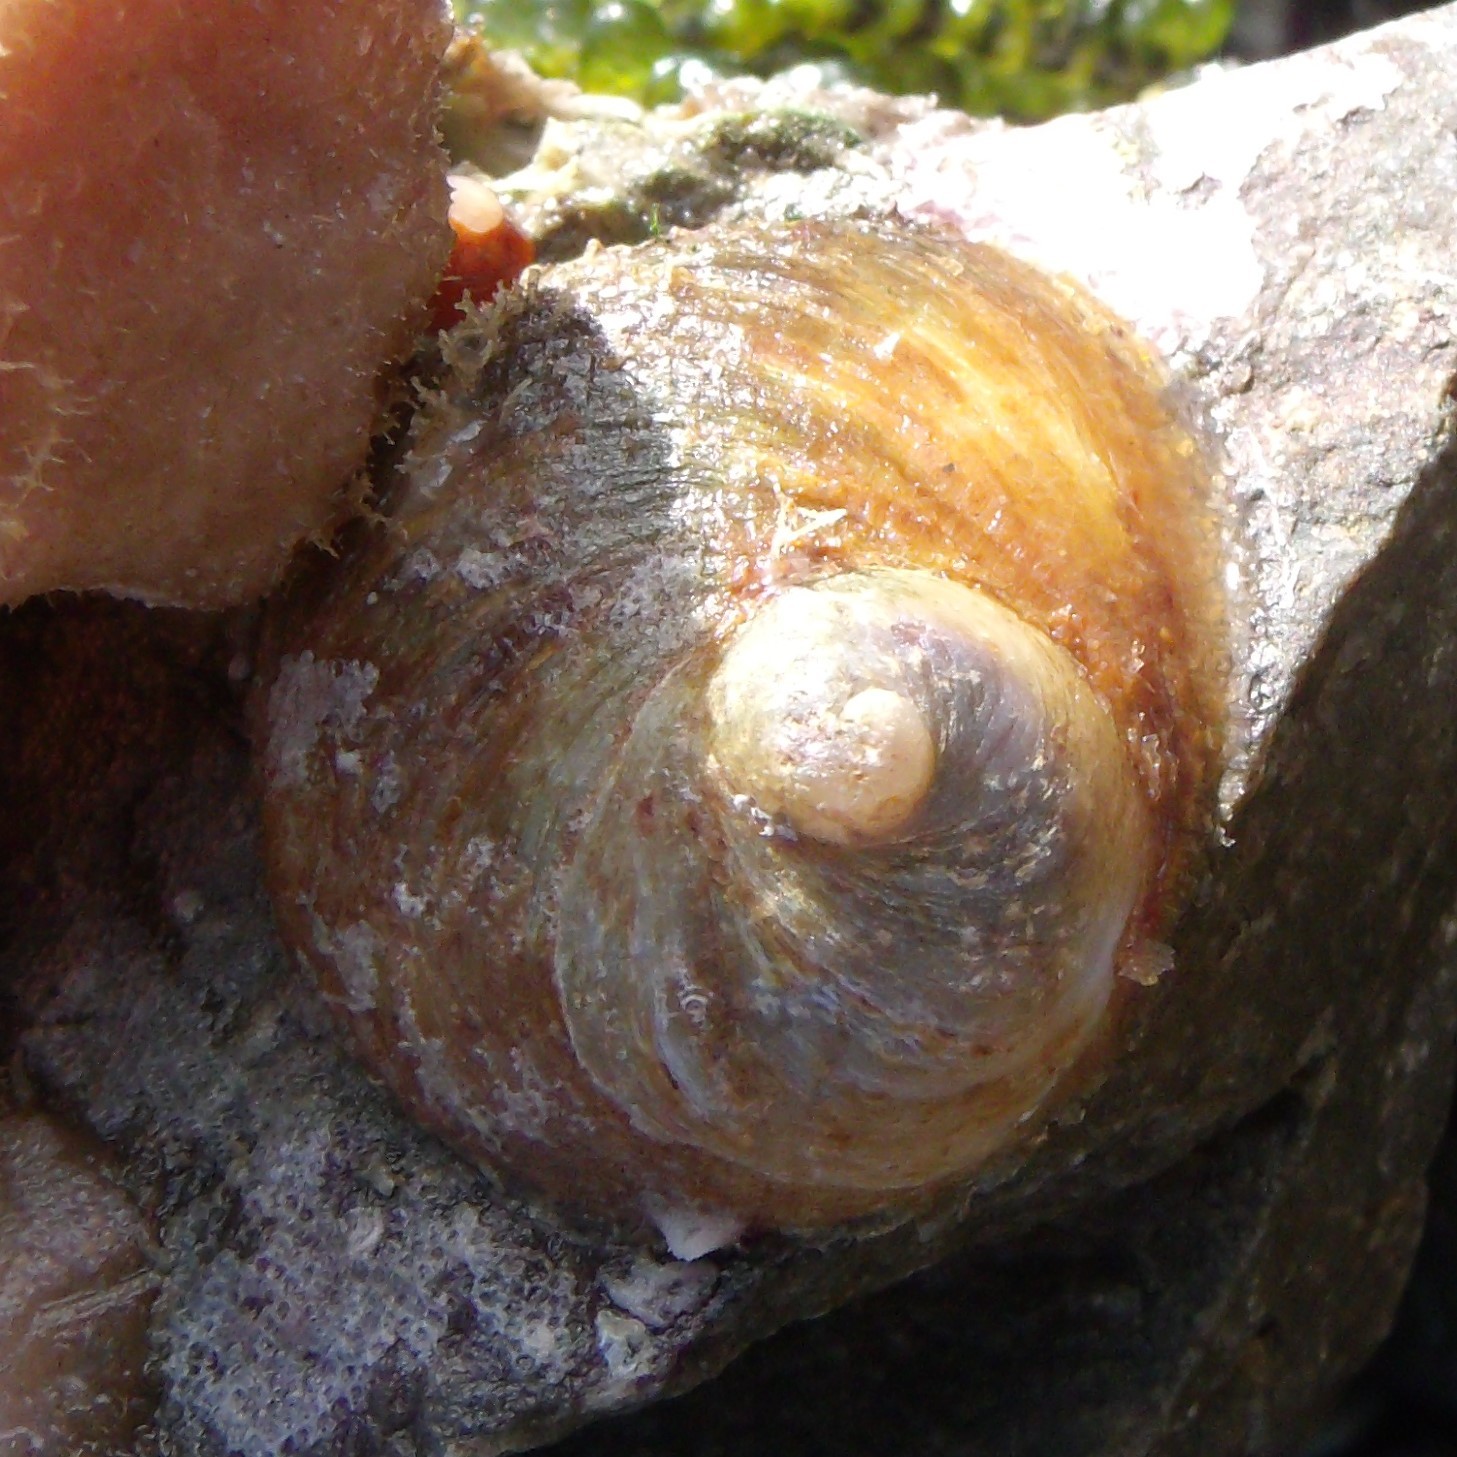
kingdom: Animalia
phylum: Mollusca
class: Gastropoda
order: Littorinimorpha
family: Calyptraeidae
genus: Sigapatella
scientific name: Sigapatella novaezelandiae
